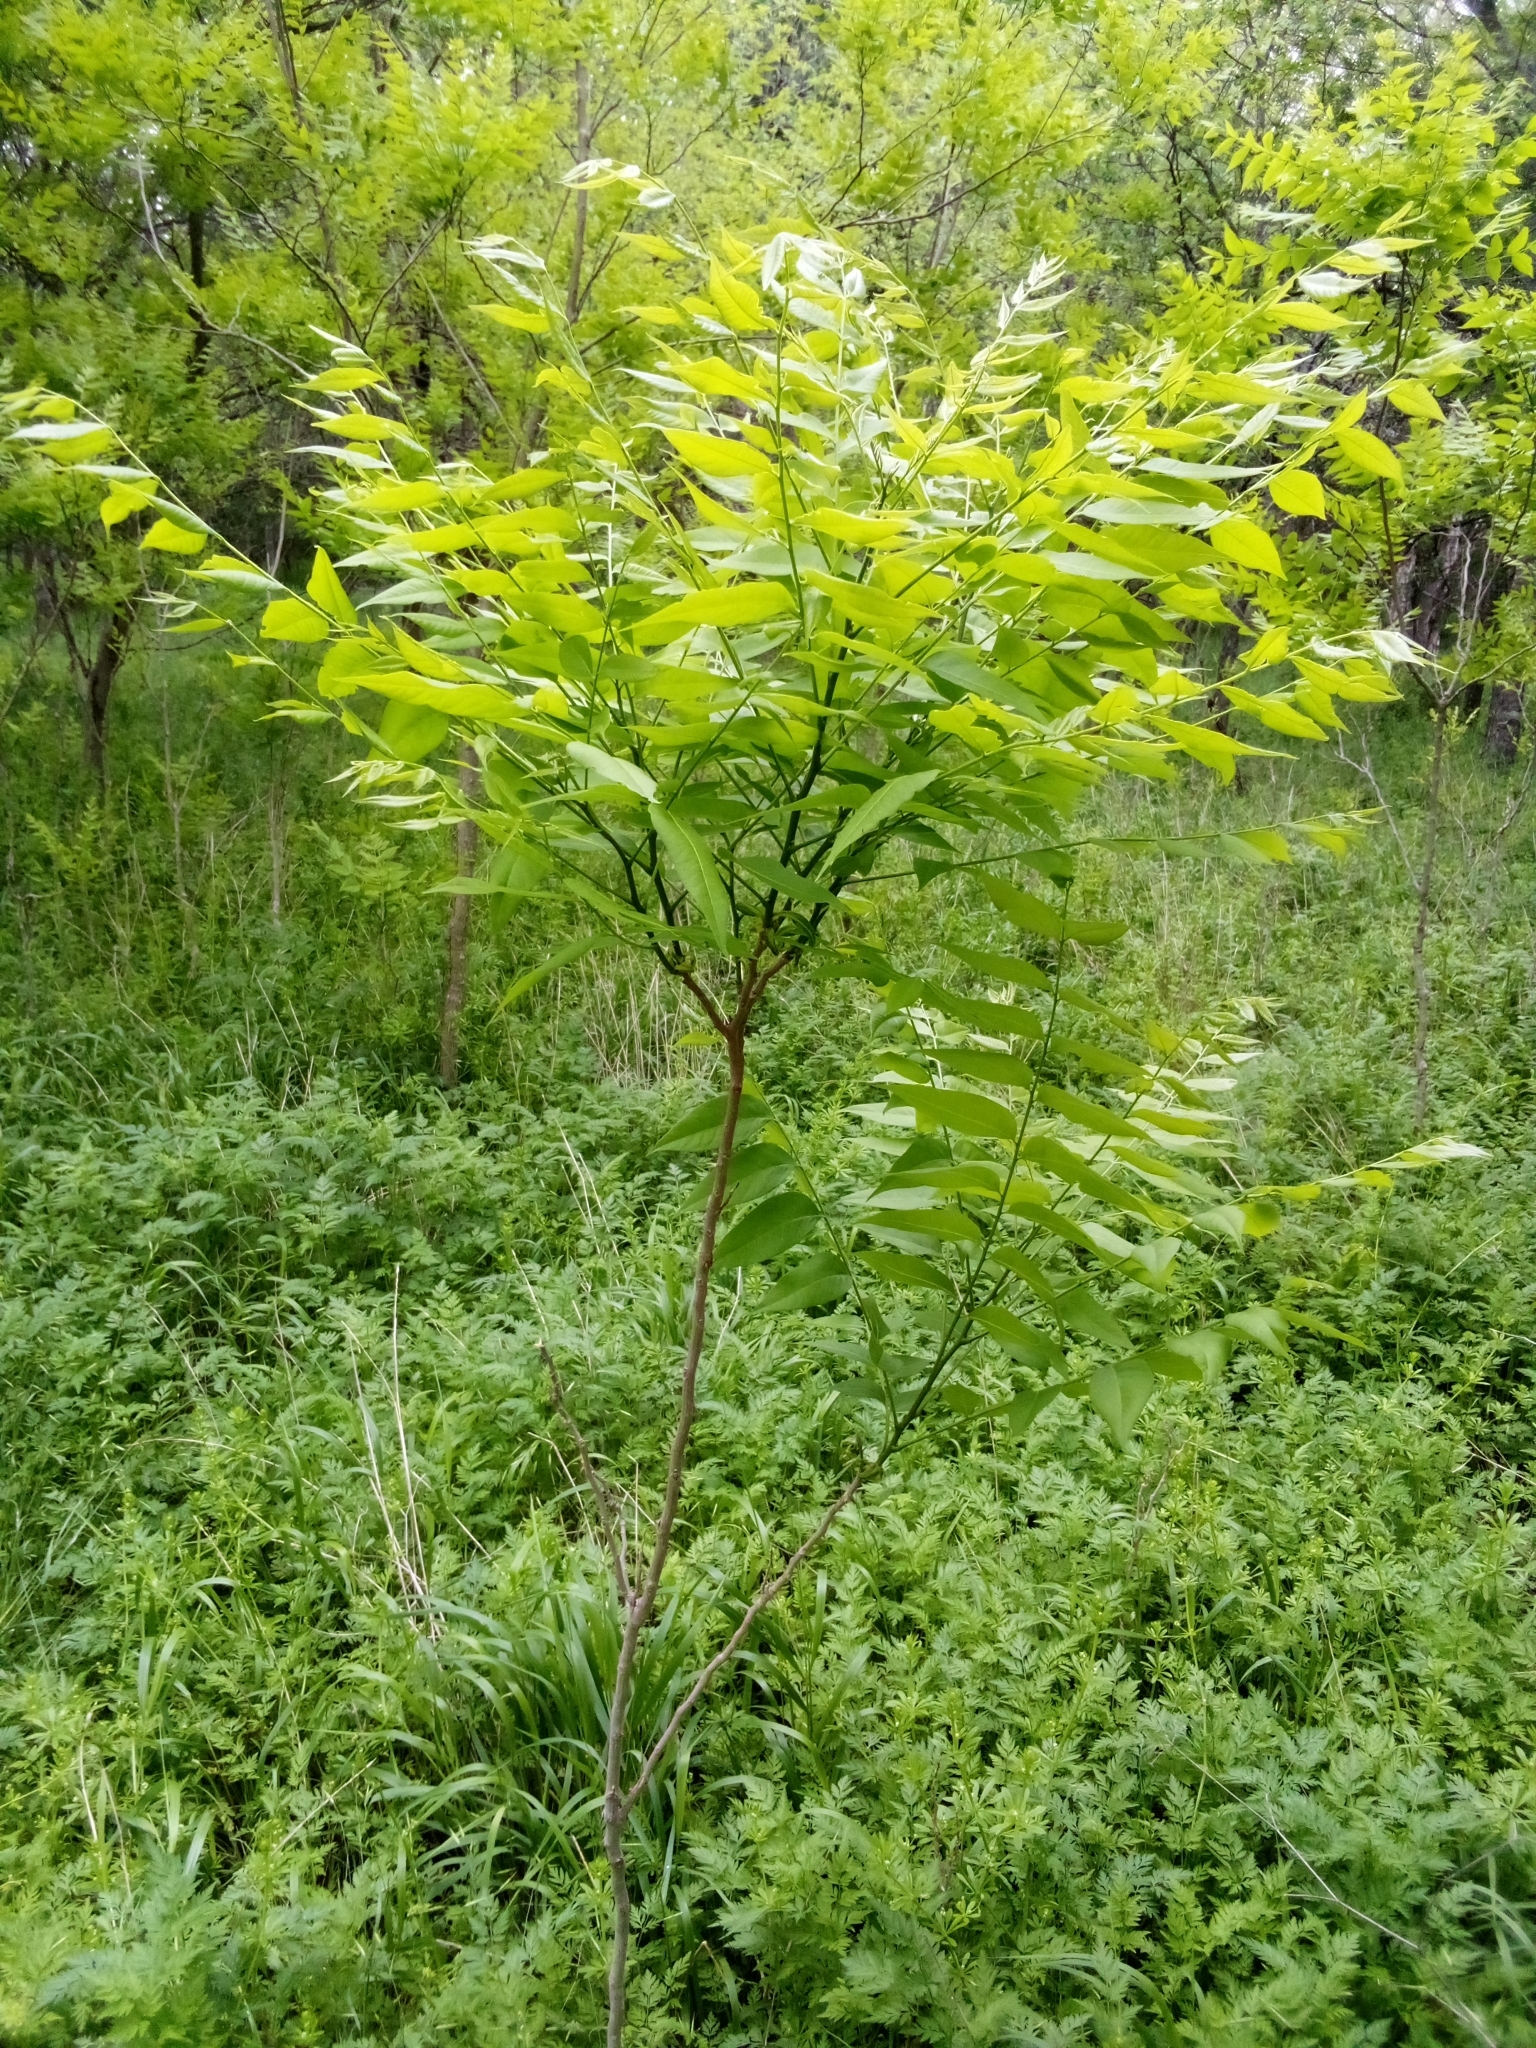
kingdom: Plantae
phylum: Tracheophyta
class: Magnoliopsida
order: Sapindales
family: Sapindaceae
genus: Sapindus
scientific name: Sapindus drummondii
